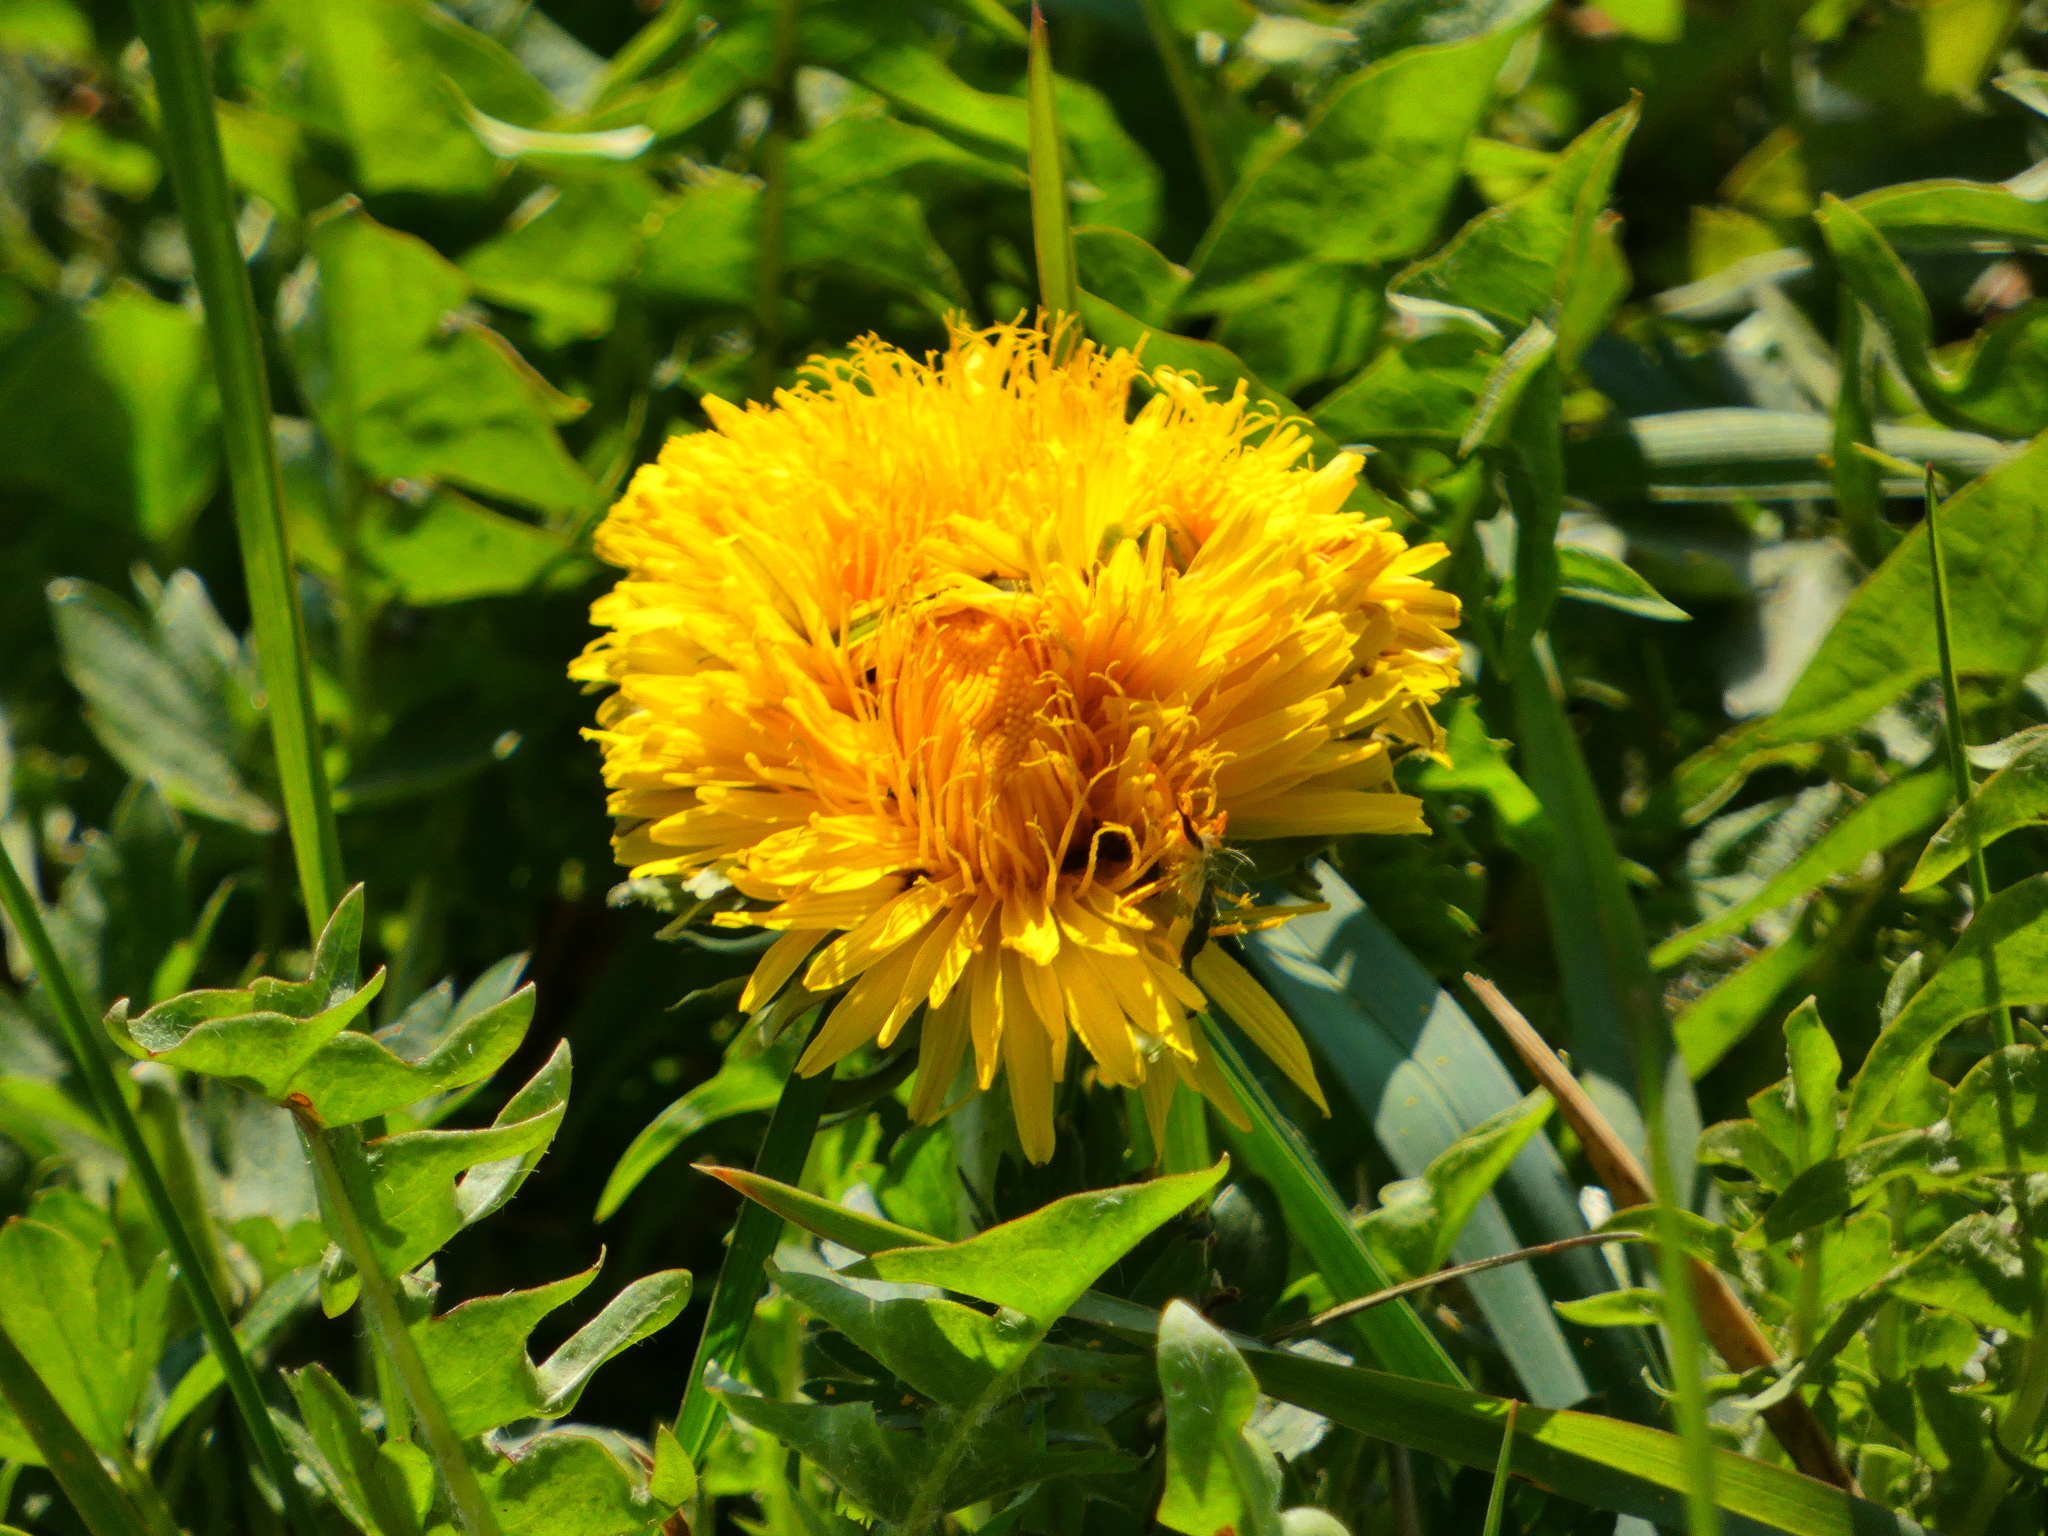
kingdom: Plantae
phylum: Tracheophyta
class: Magnoliopsida
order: Asterales
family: Asteraceae
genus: Taraxacum
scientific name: Taraxacum
